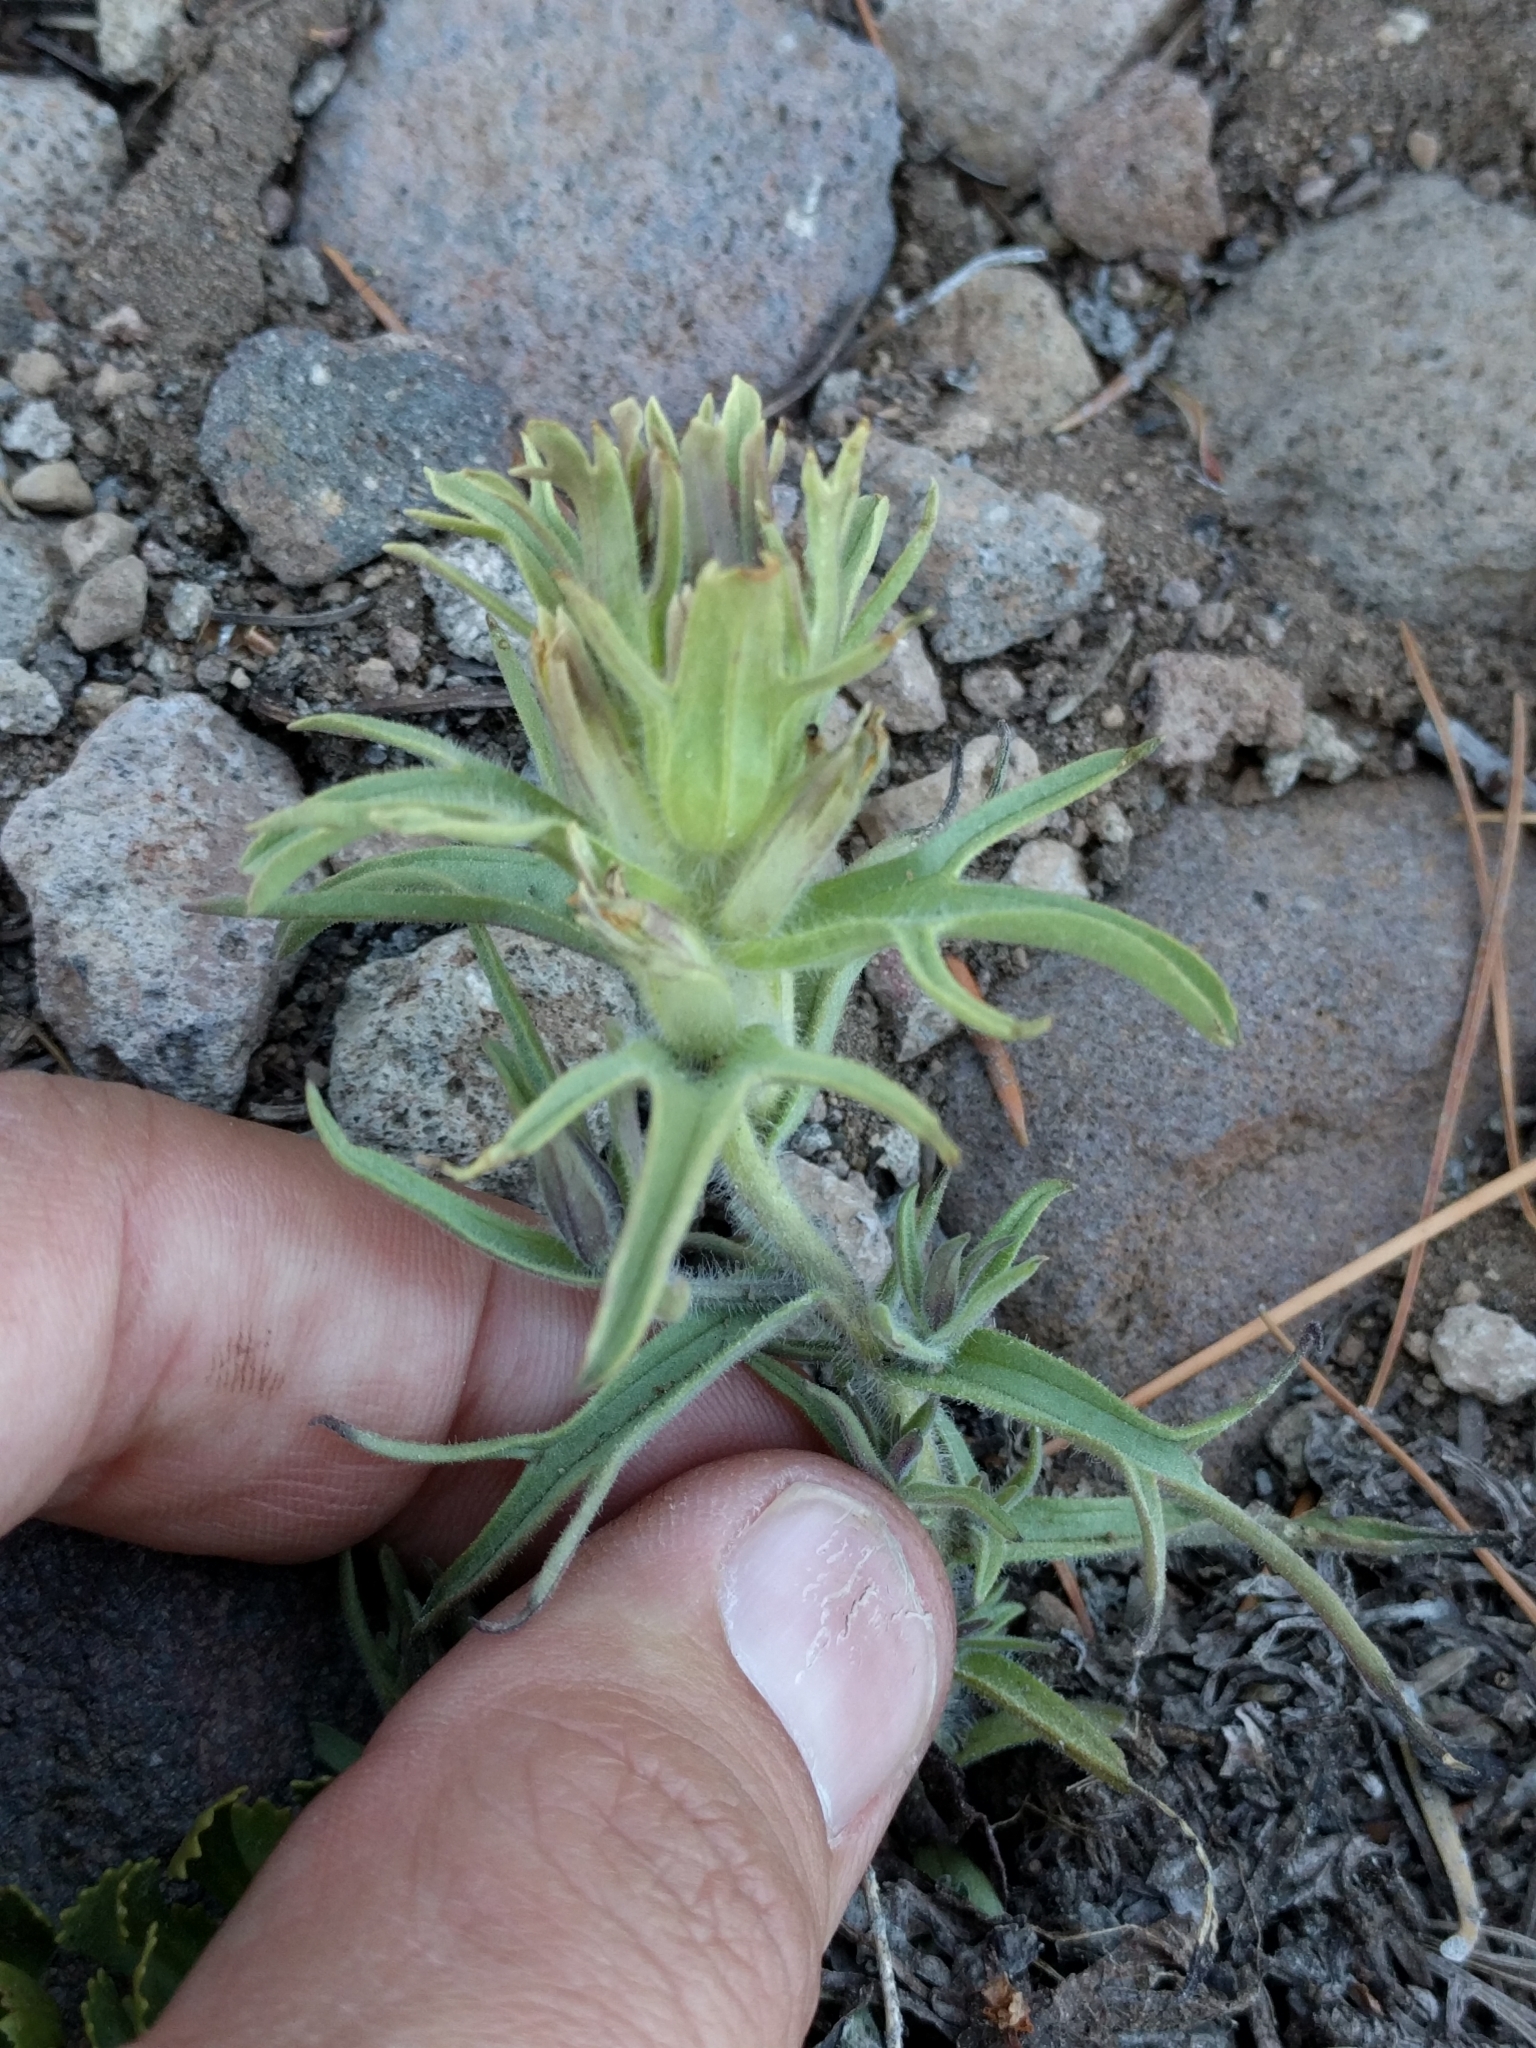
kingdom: Plantae
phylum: Tracheophyta
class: Magnoliopsida
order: Lamiales
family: Orobanchaceae
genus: Castilleja
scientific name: Castilleja nana
